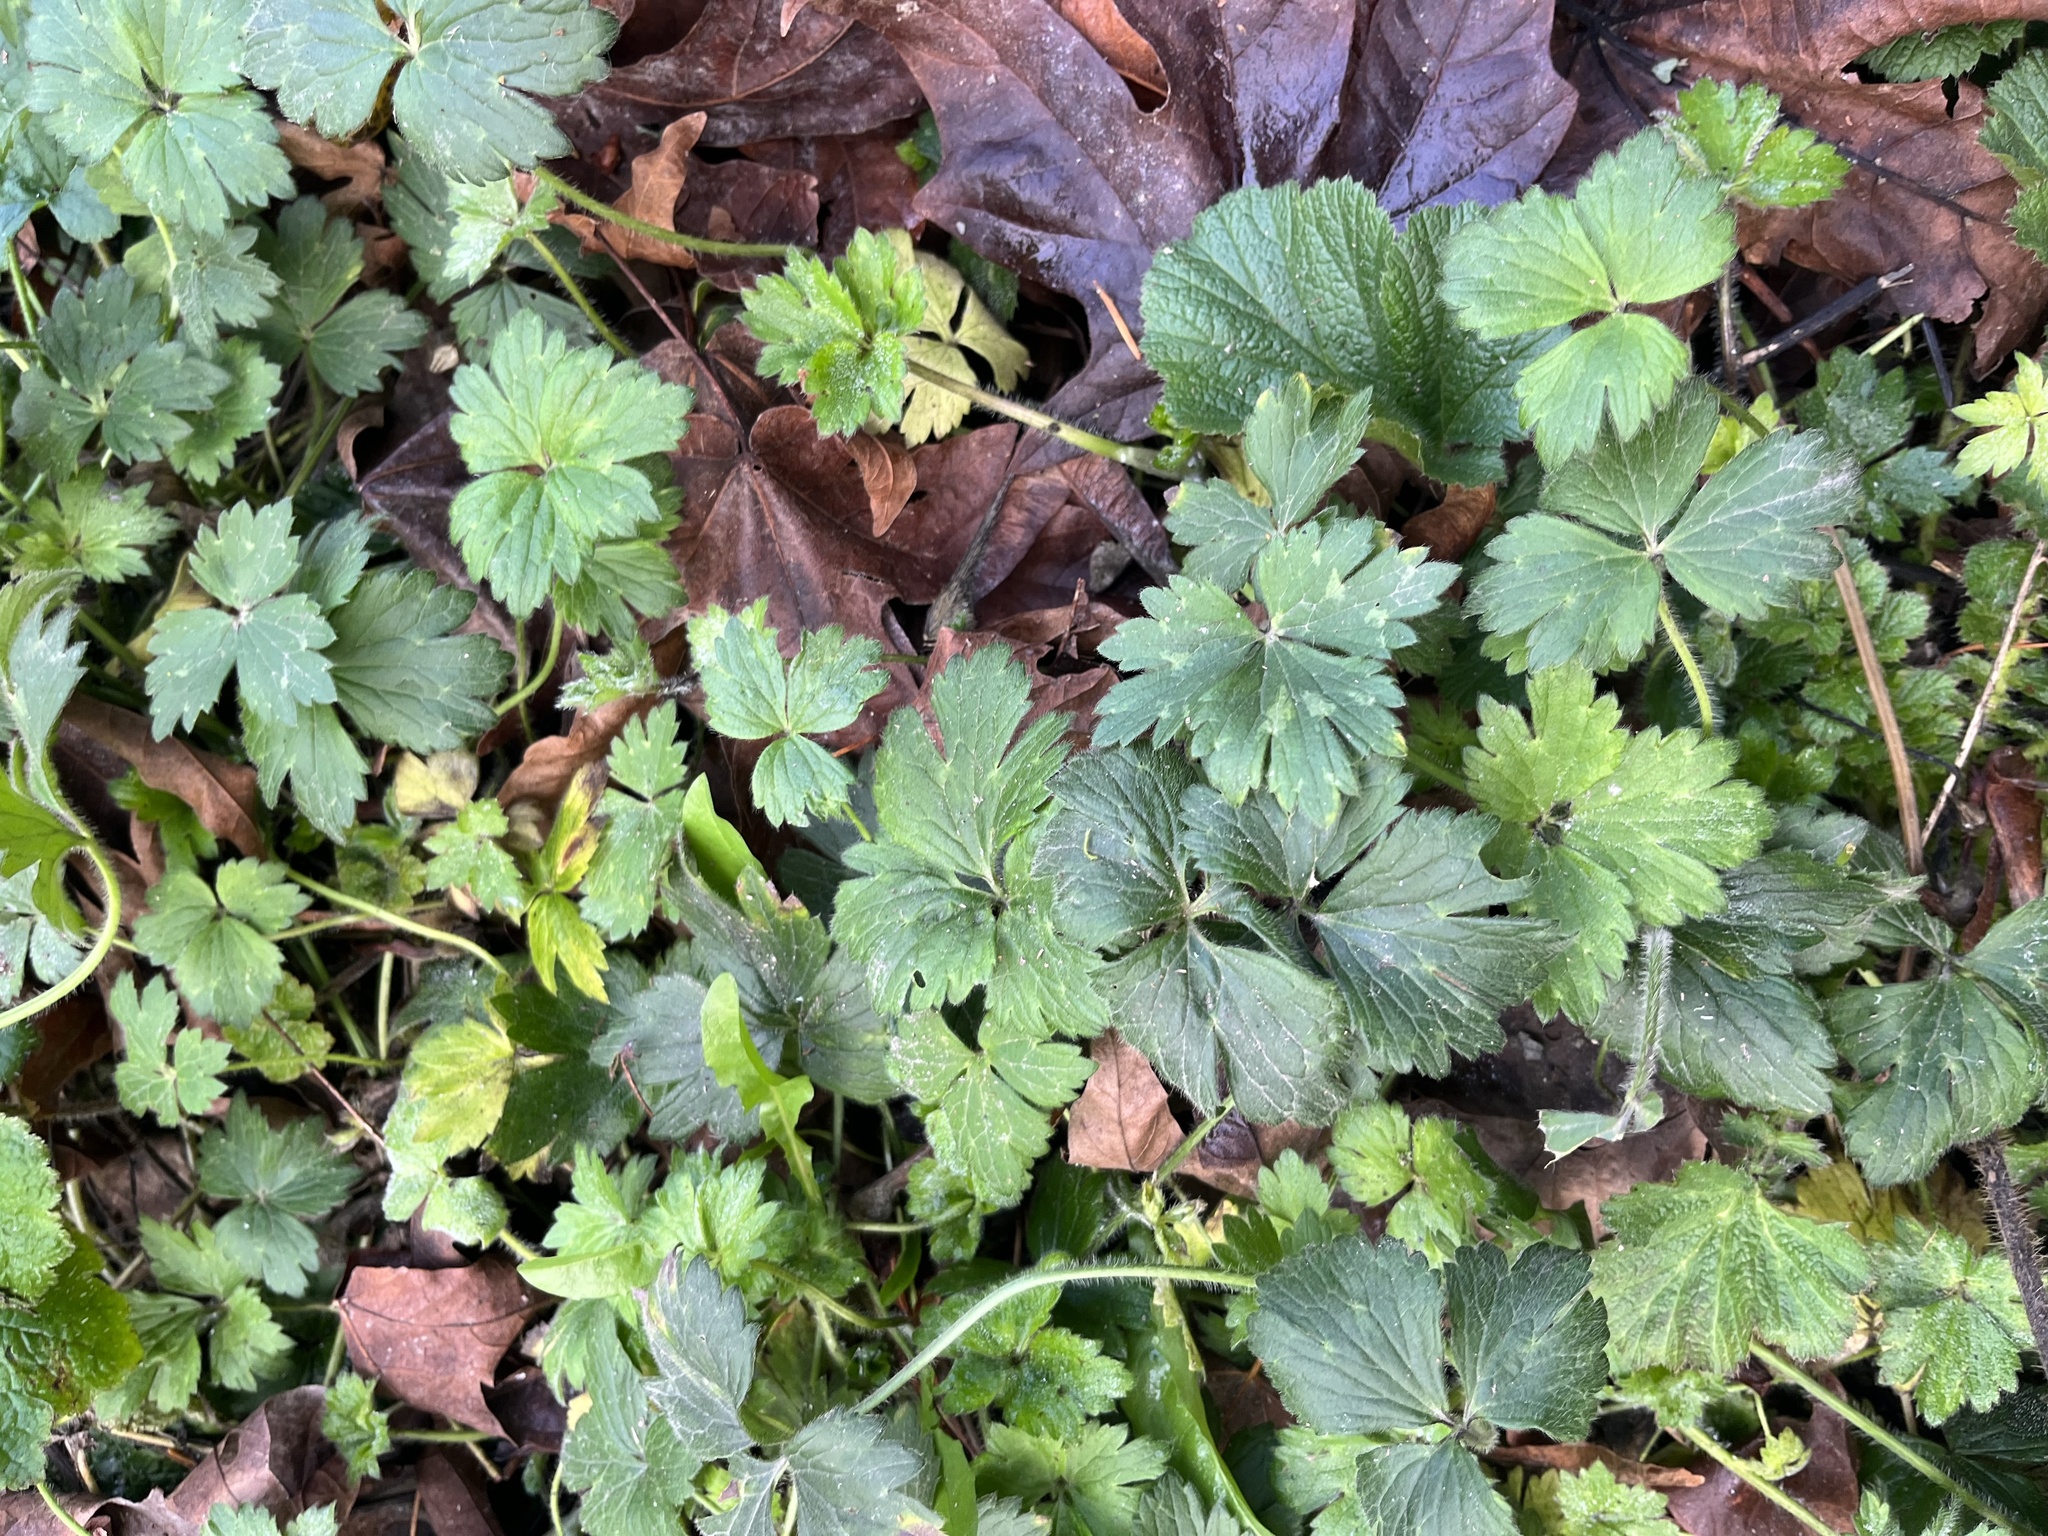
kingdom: Plantae
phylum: Tracheophyta
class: Magnoliopsida
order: Ranunculales
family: Ranunculaceae
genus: Ranunculus
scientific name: Ranunculus repens
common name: Creeping buttercup
